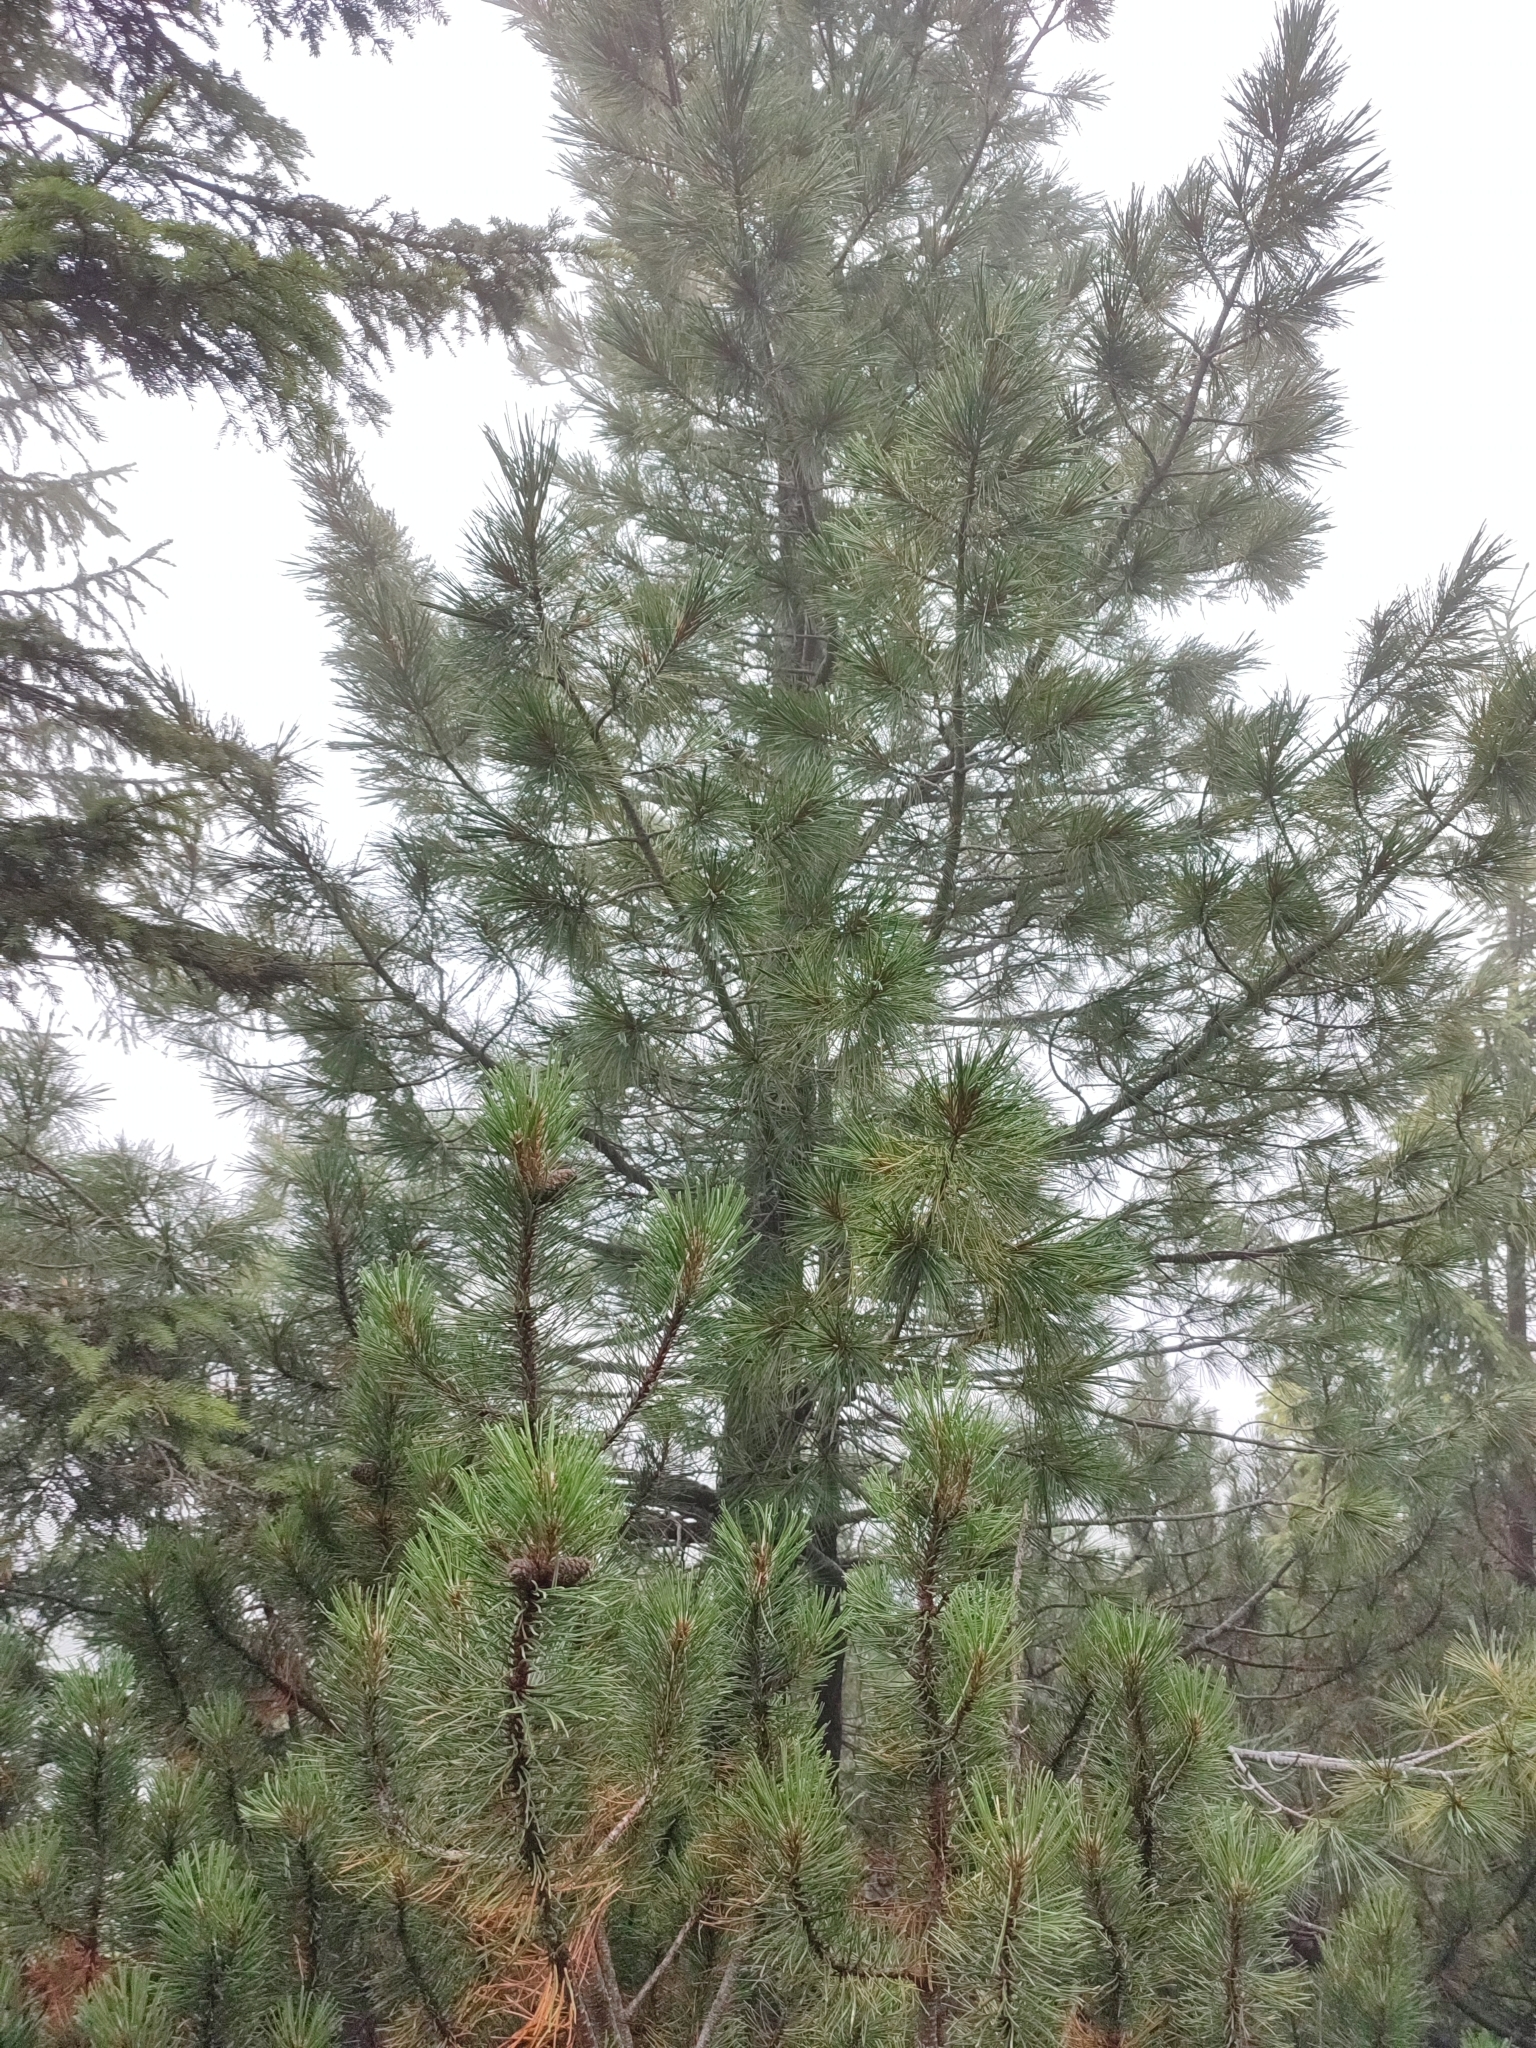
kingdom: Plantae
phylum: Tracheophyta
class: Pinopsida
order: Pinales
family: Pinaceae
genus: Pinus
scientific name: Pinus cembra
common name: Arolla pine
